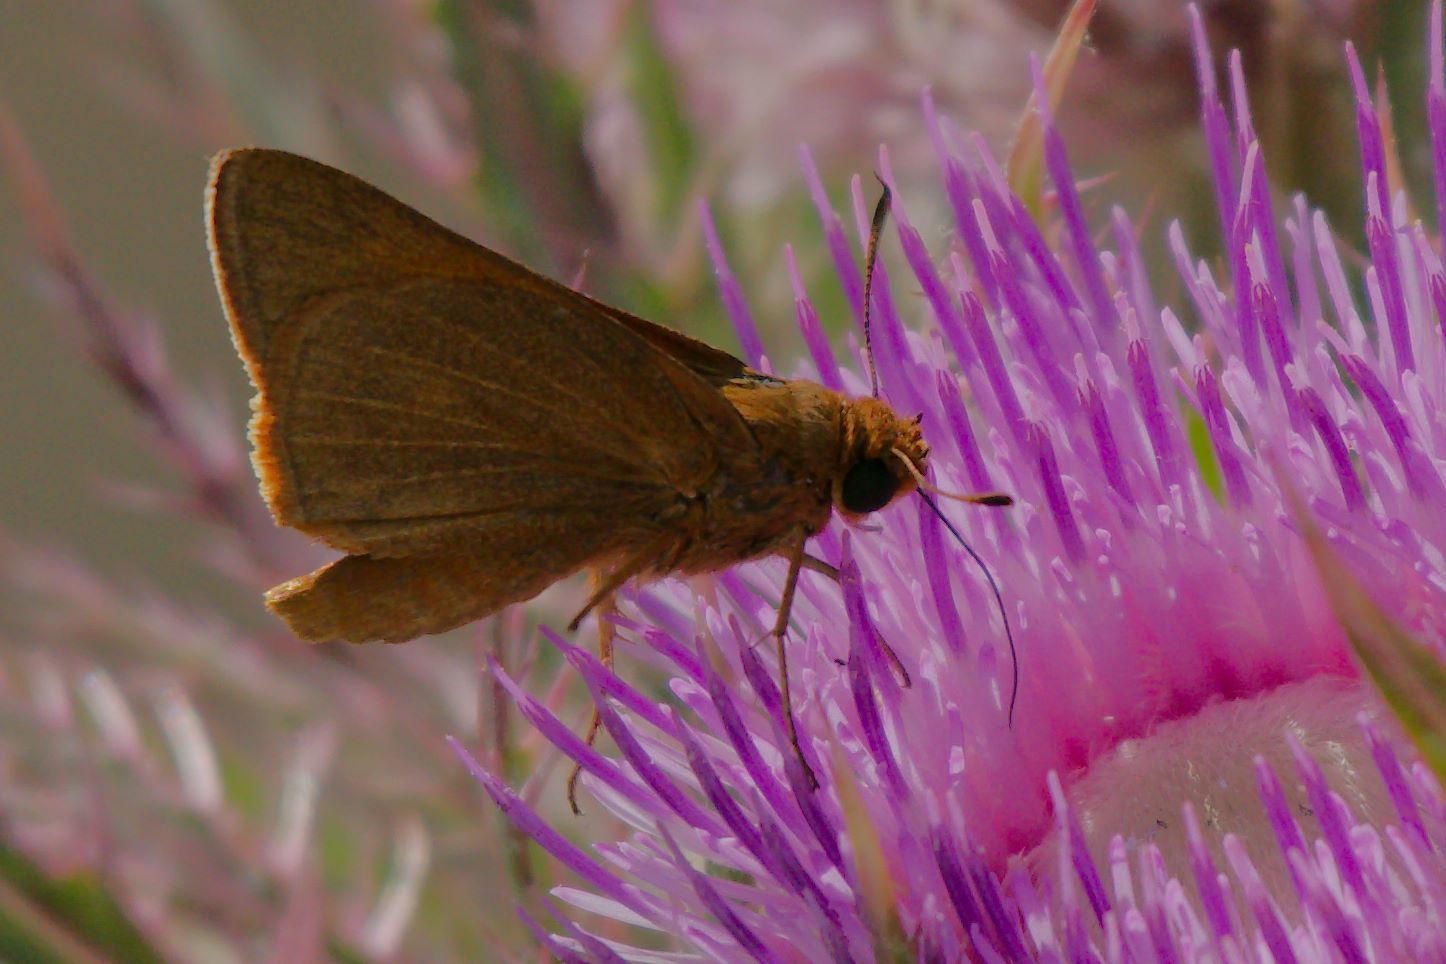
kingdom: Animalia
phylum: Arthropoda
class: Insecta
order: Lepidoptera
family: Hesperiidae
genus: Euphyes
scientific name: Euphyes pilatka
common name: Palatka skipper
